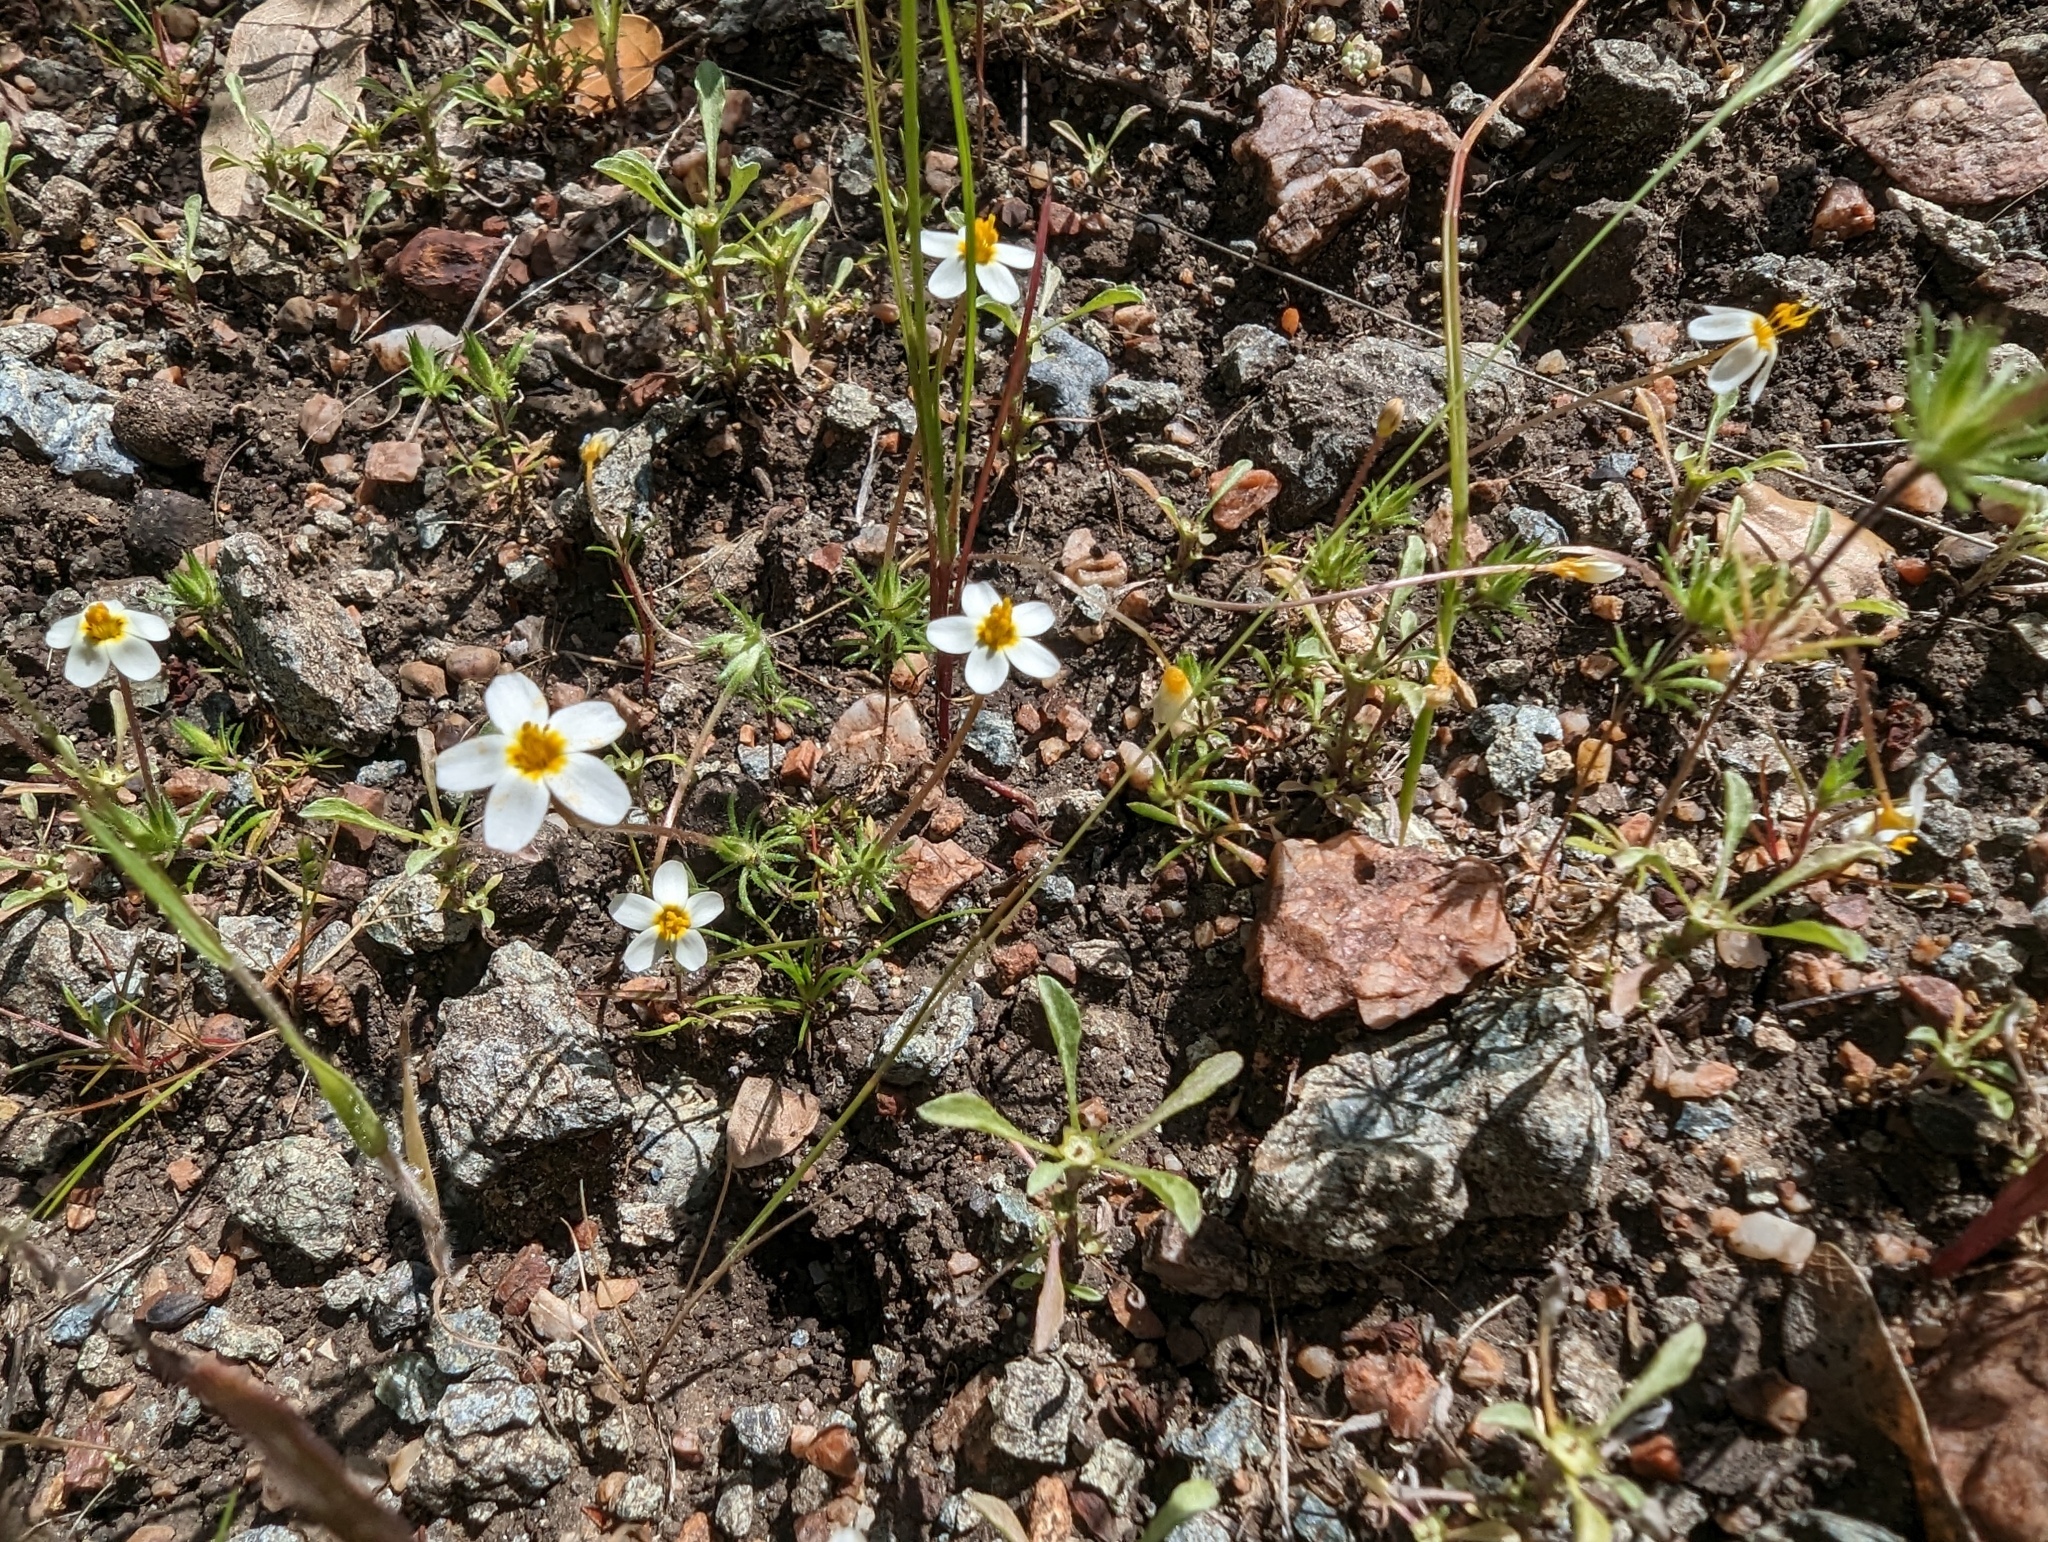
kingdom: Plantae
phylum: Tracheophyta
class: Magnoliopsida
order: Ericales
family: Polemoniaceae
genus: Leptosiphon
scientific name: Leptosiphon parviflorus
